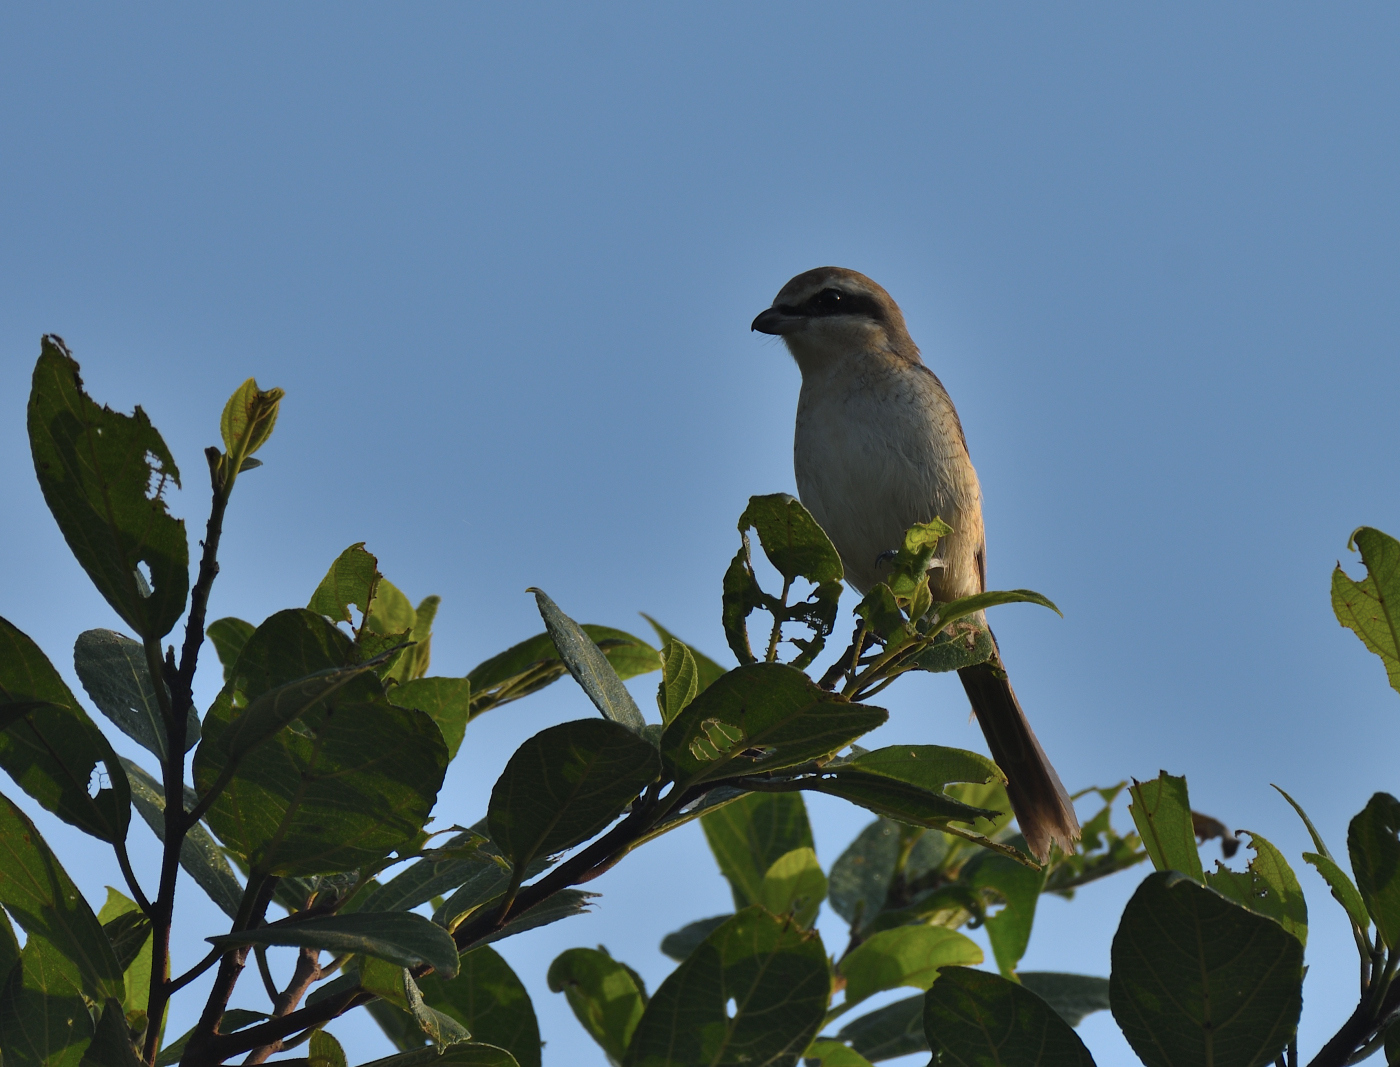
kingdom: Animalia
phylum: Chordata
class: Aves
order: Passeriformes
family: Laniidae
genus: Lanius
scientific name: Lanius cristatus
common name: Brown shrike
